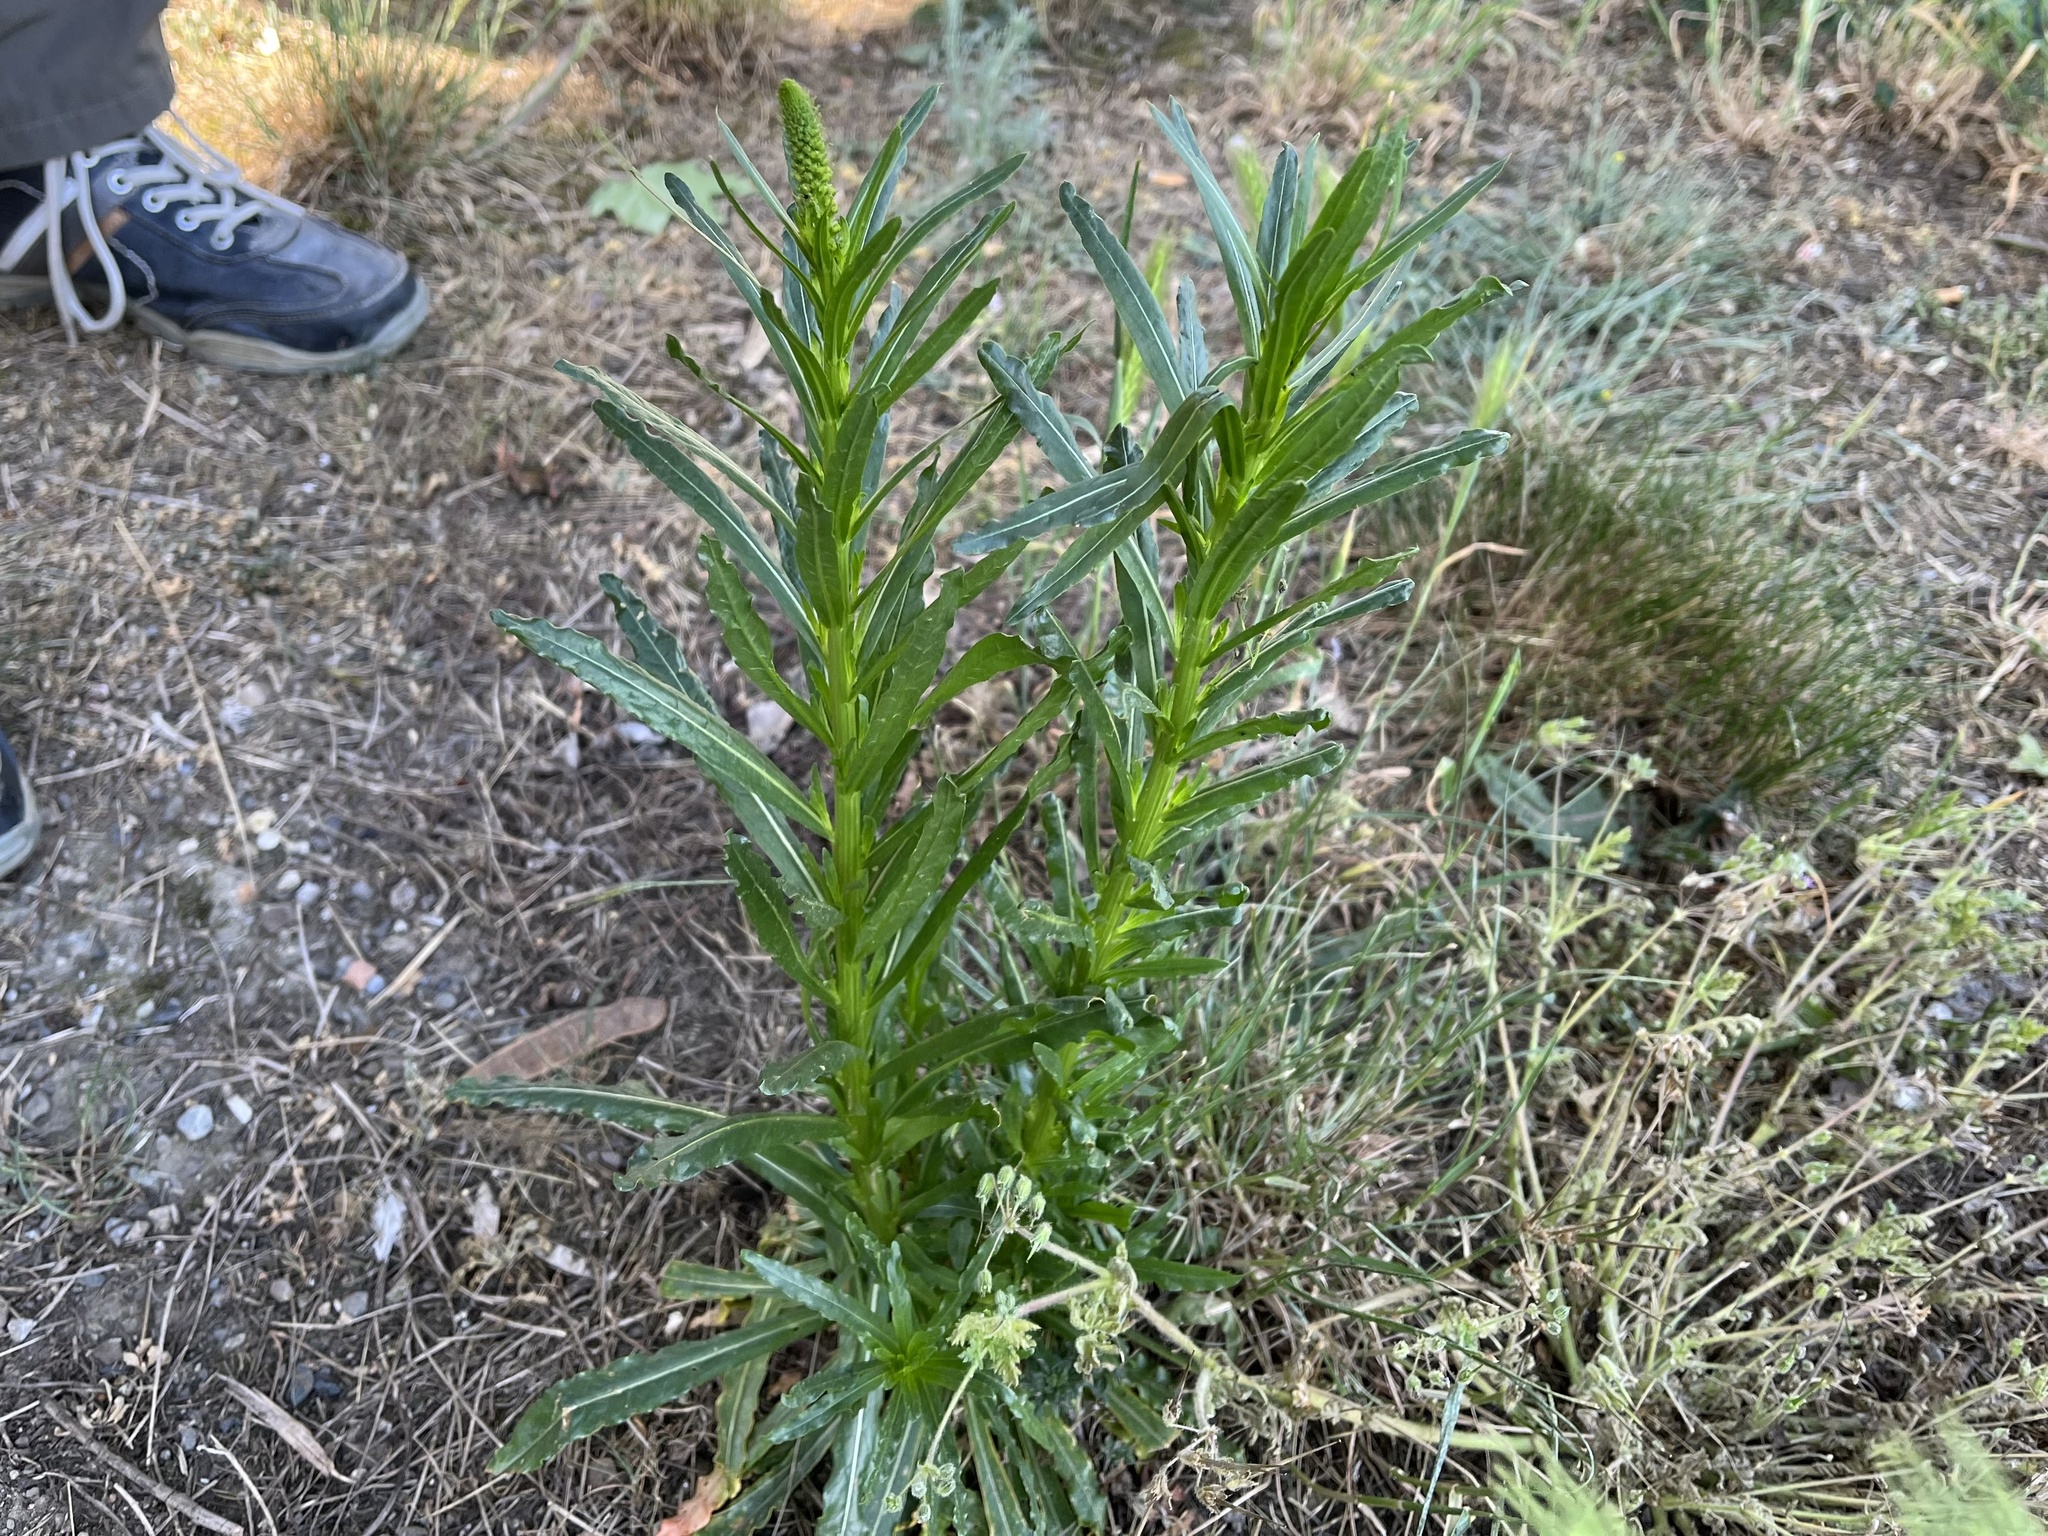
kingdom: Plantae
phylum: Tracheophyta
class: Magnoliopsida
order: Brassicales
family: Resedaceae
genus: Reseda
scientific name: Reseda luteola
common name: Weld
